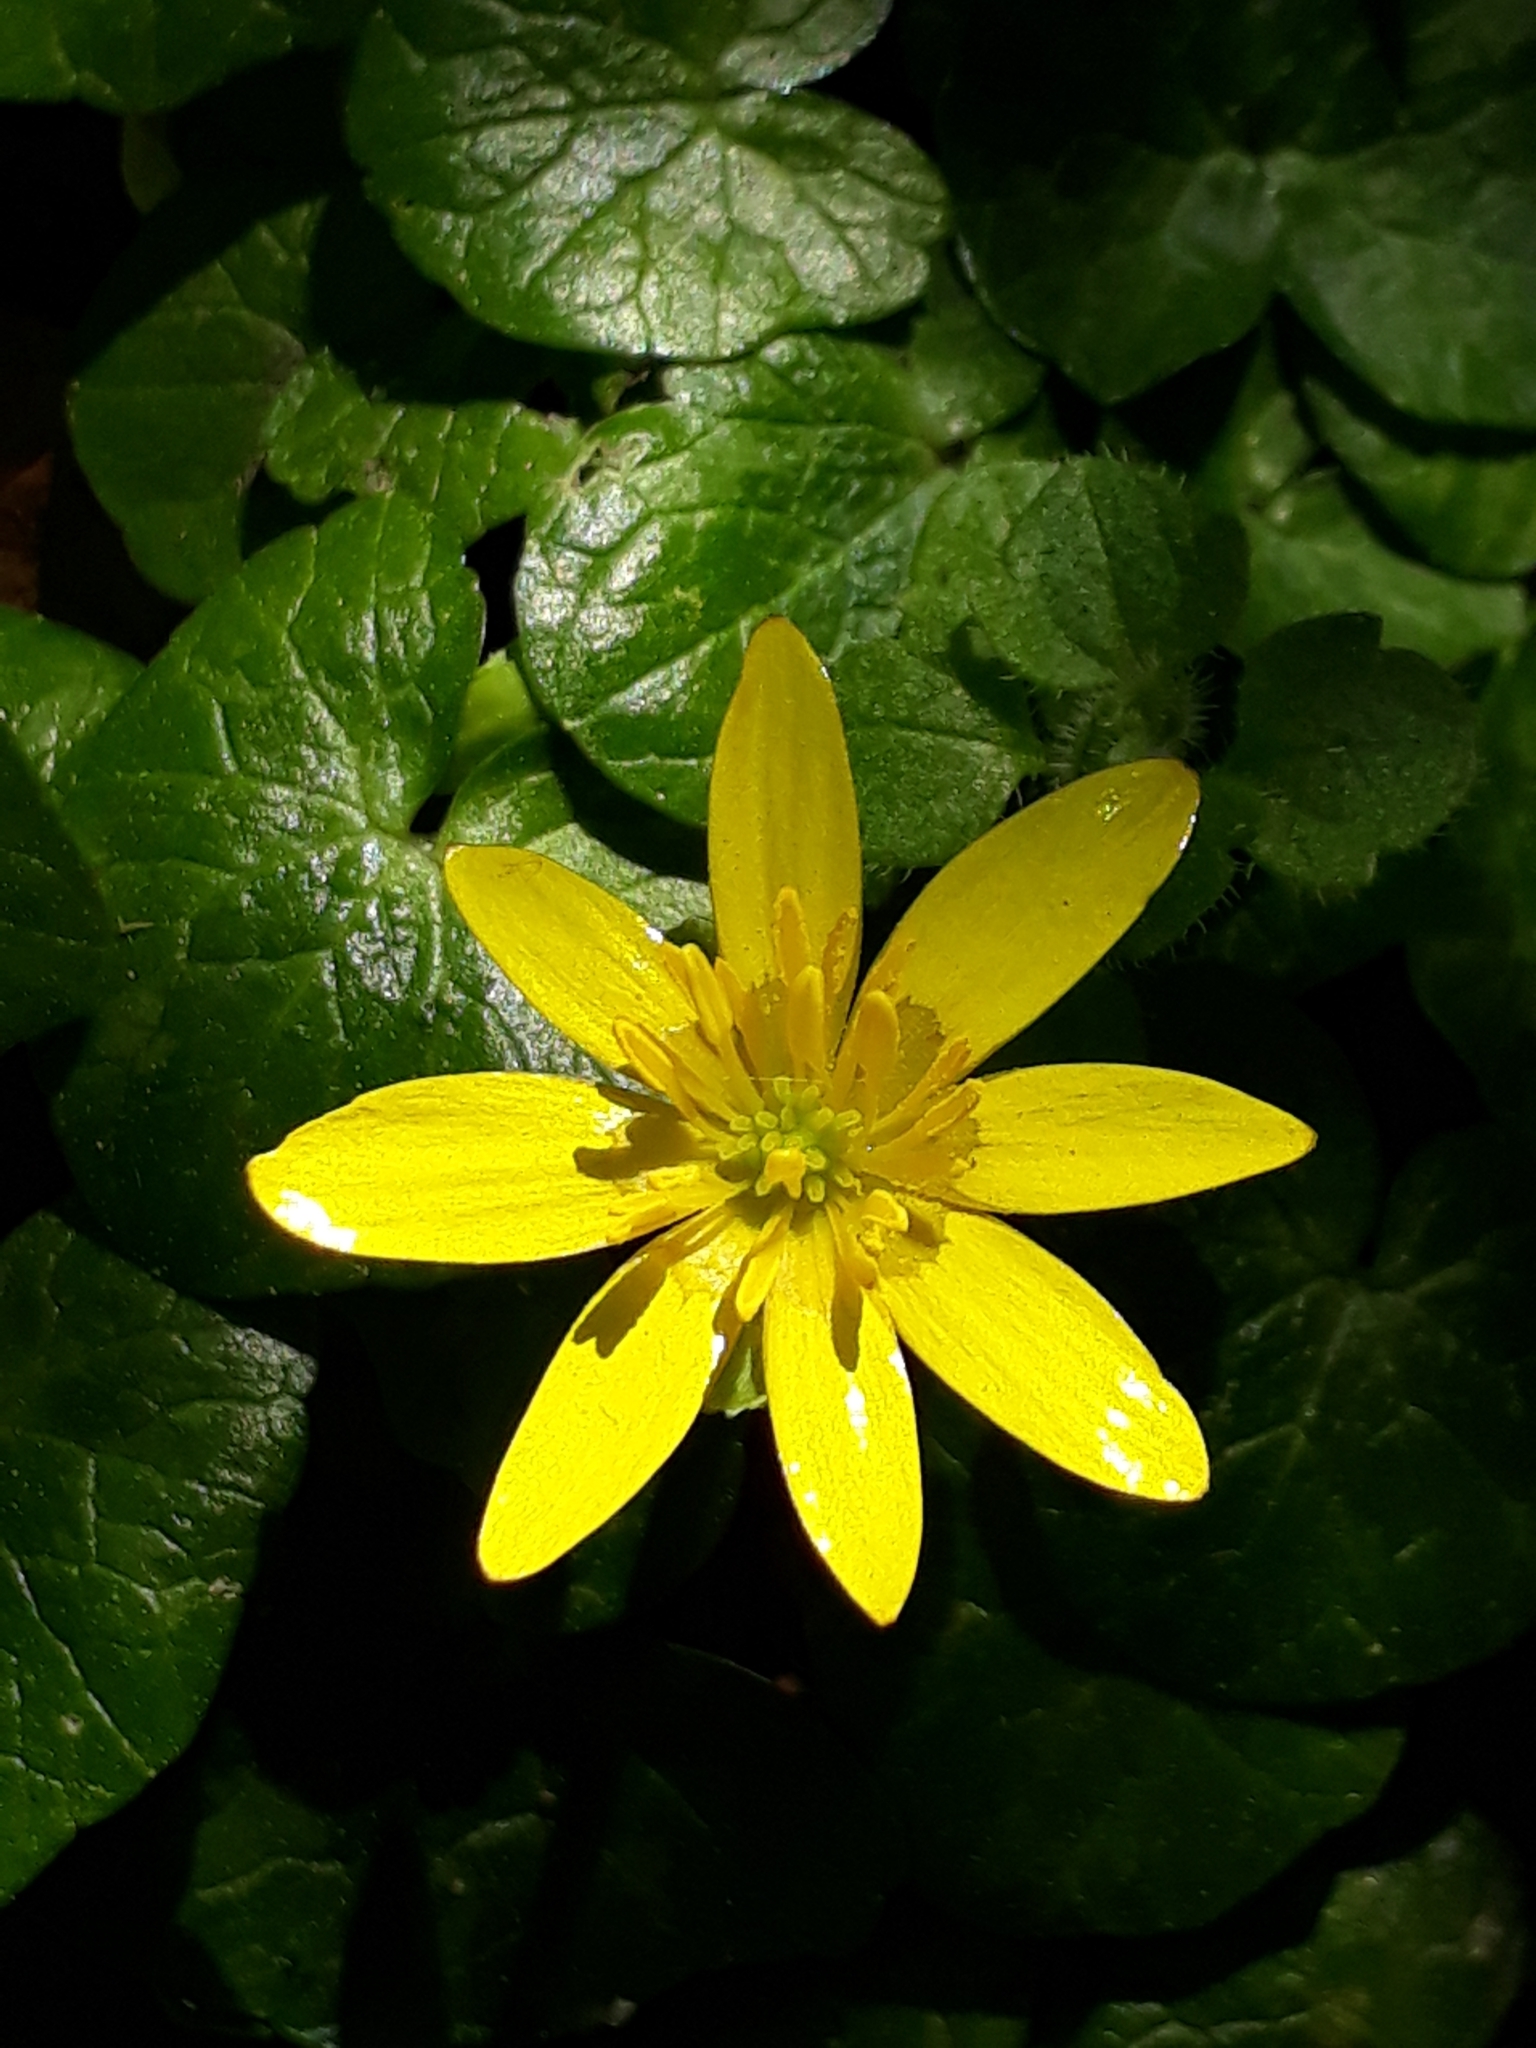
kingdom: Plantae
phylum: Tracheophyta
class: Magnoliopsida
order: Ranunculales
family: Ranunculaceae
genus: Ficaria
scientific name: Ficaria verna
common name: Lesser celandine
